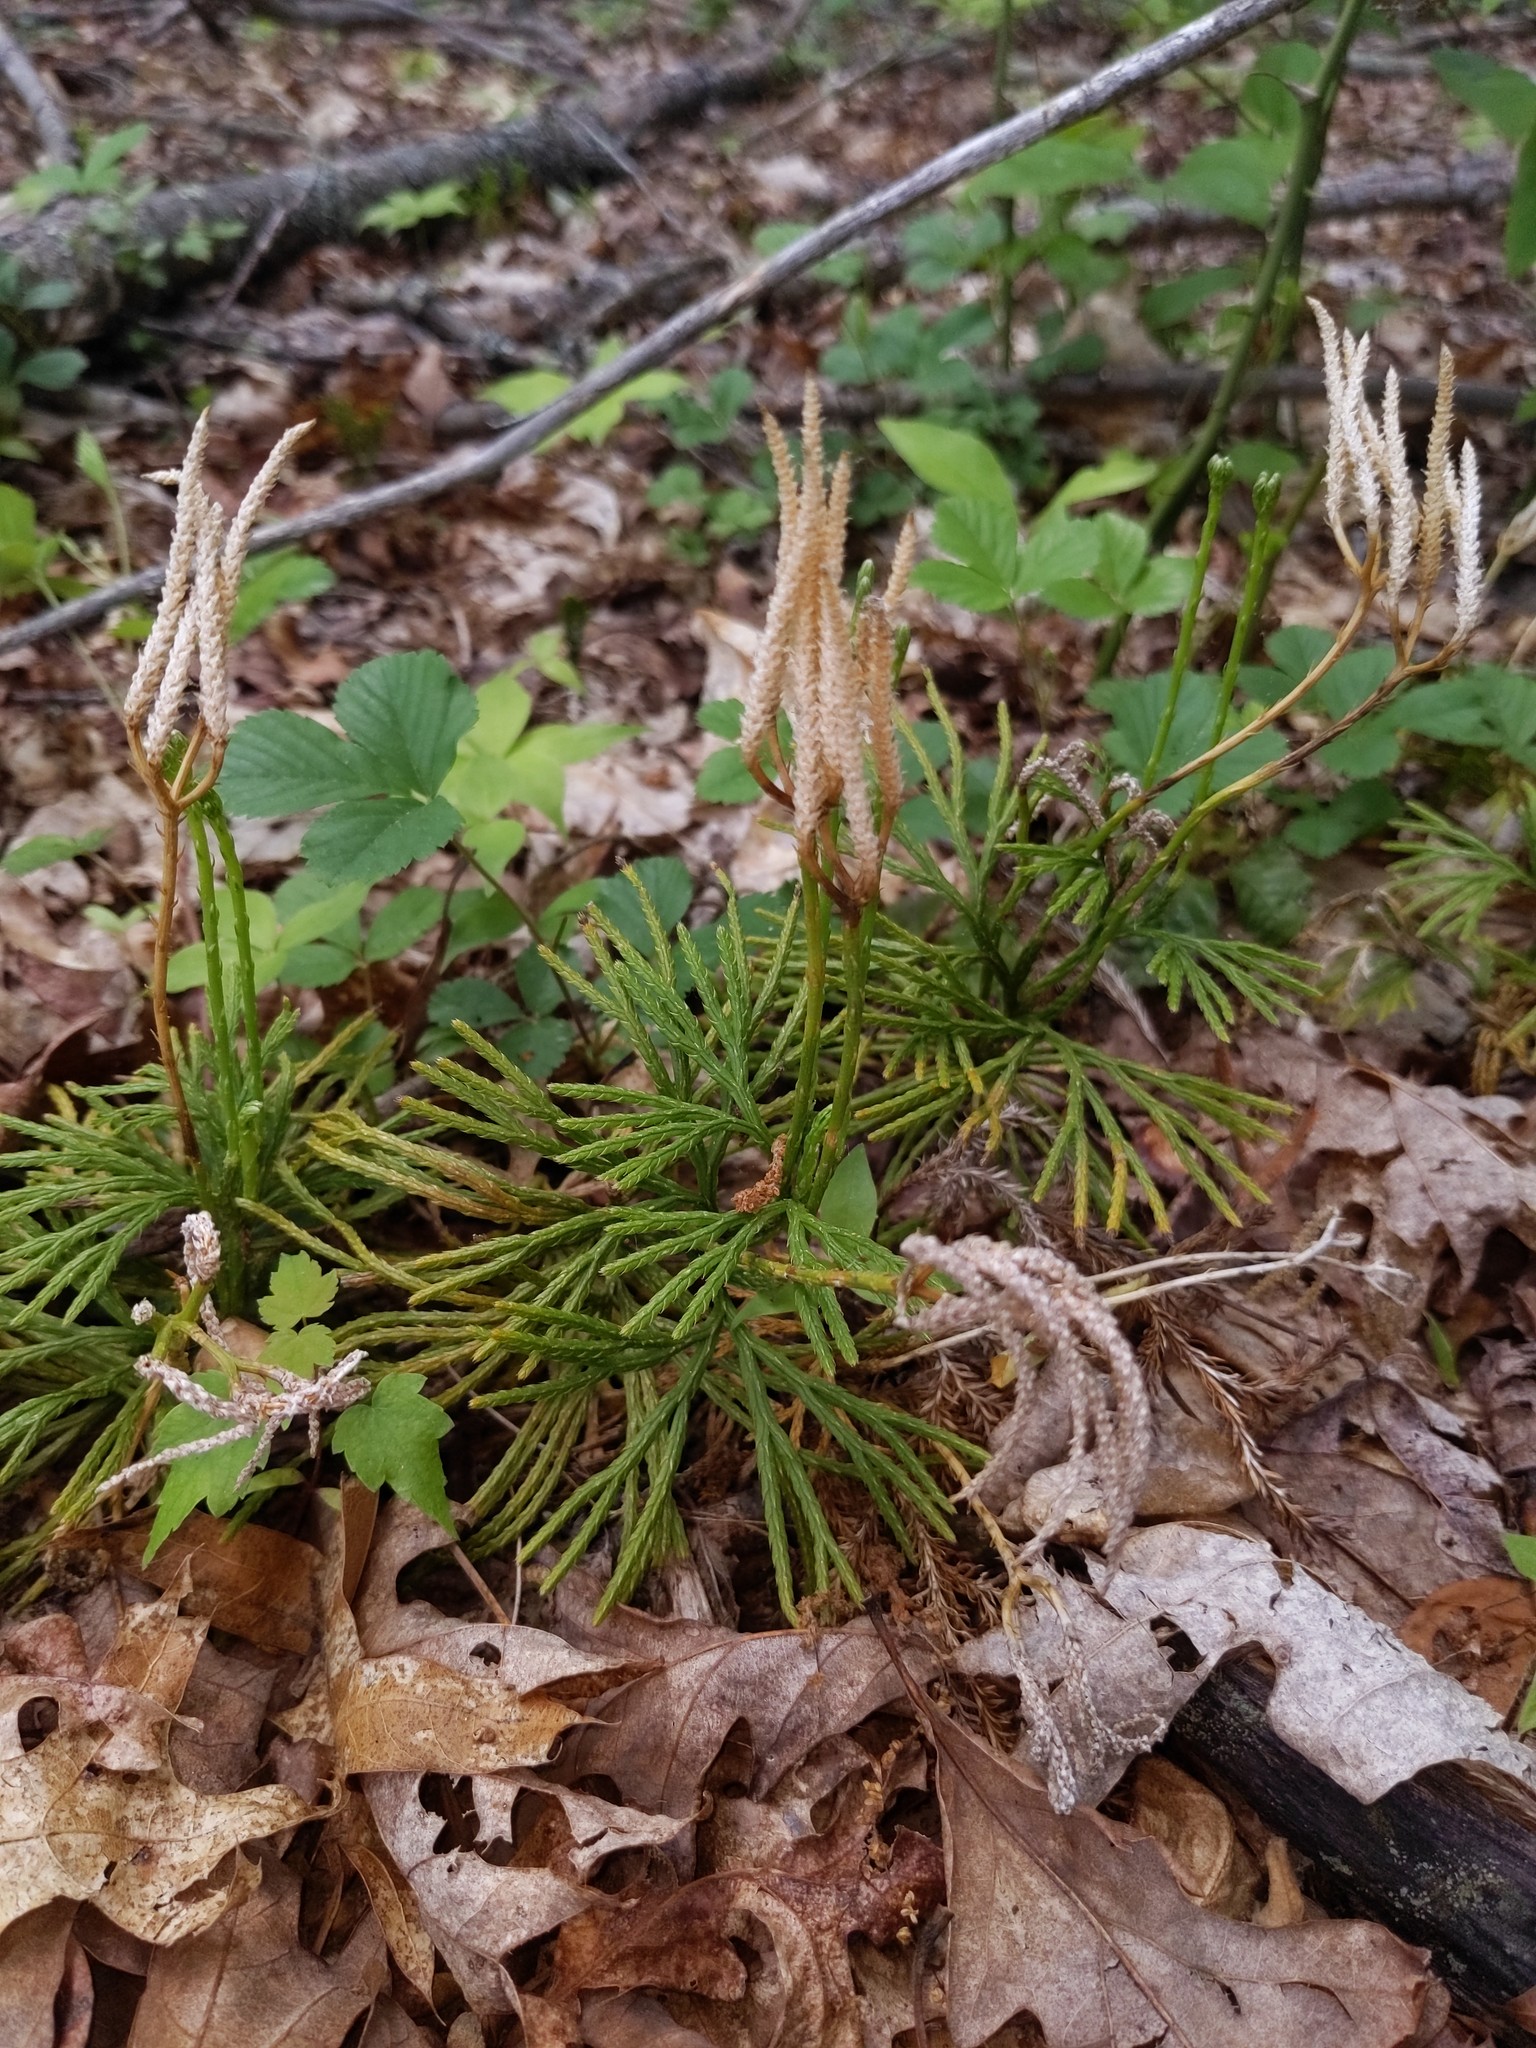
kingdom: Plantae
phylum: Tracheophyta
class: Lycopodiopsida
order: Lycopodiales
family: Lycopodiaceae
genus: Diphasiastrum
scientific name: Diphasiastrum digitatum
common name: Southern running-pine
